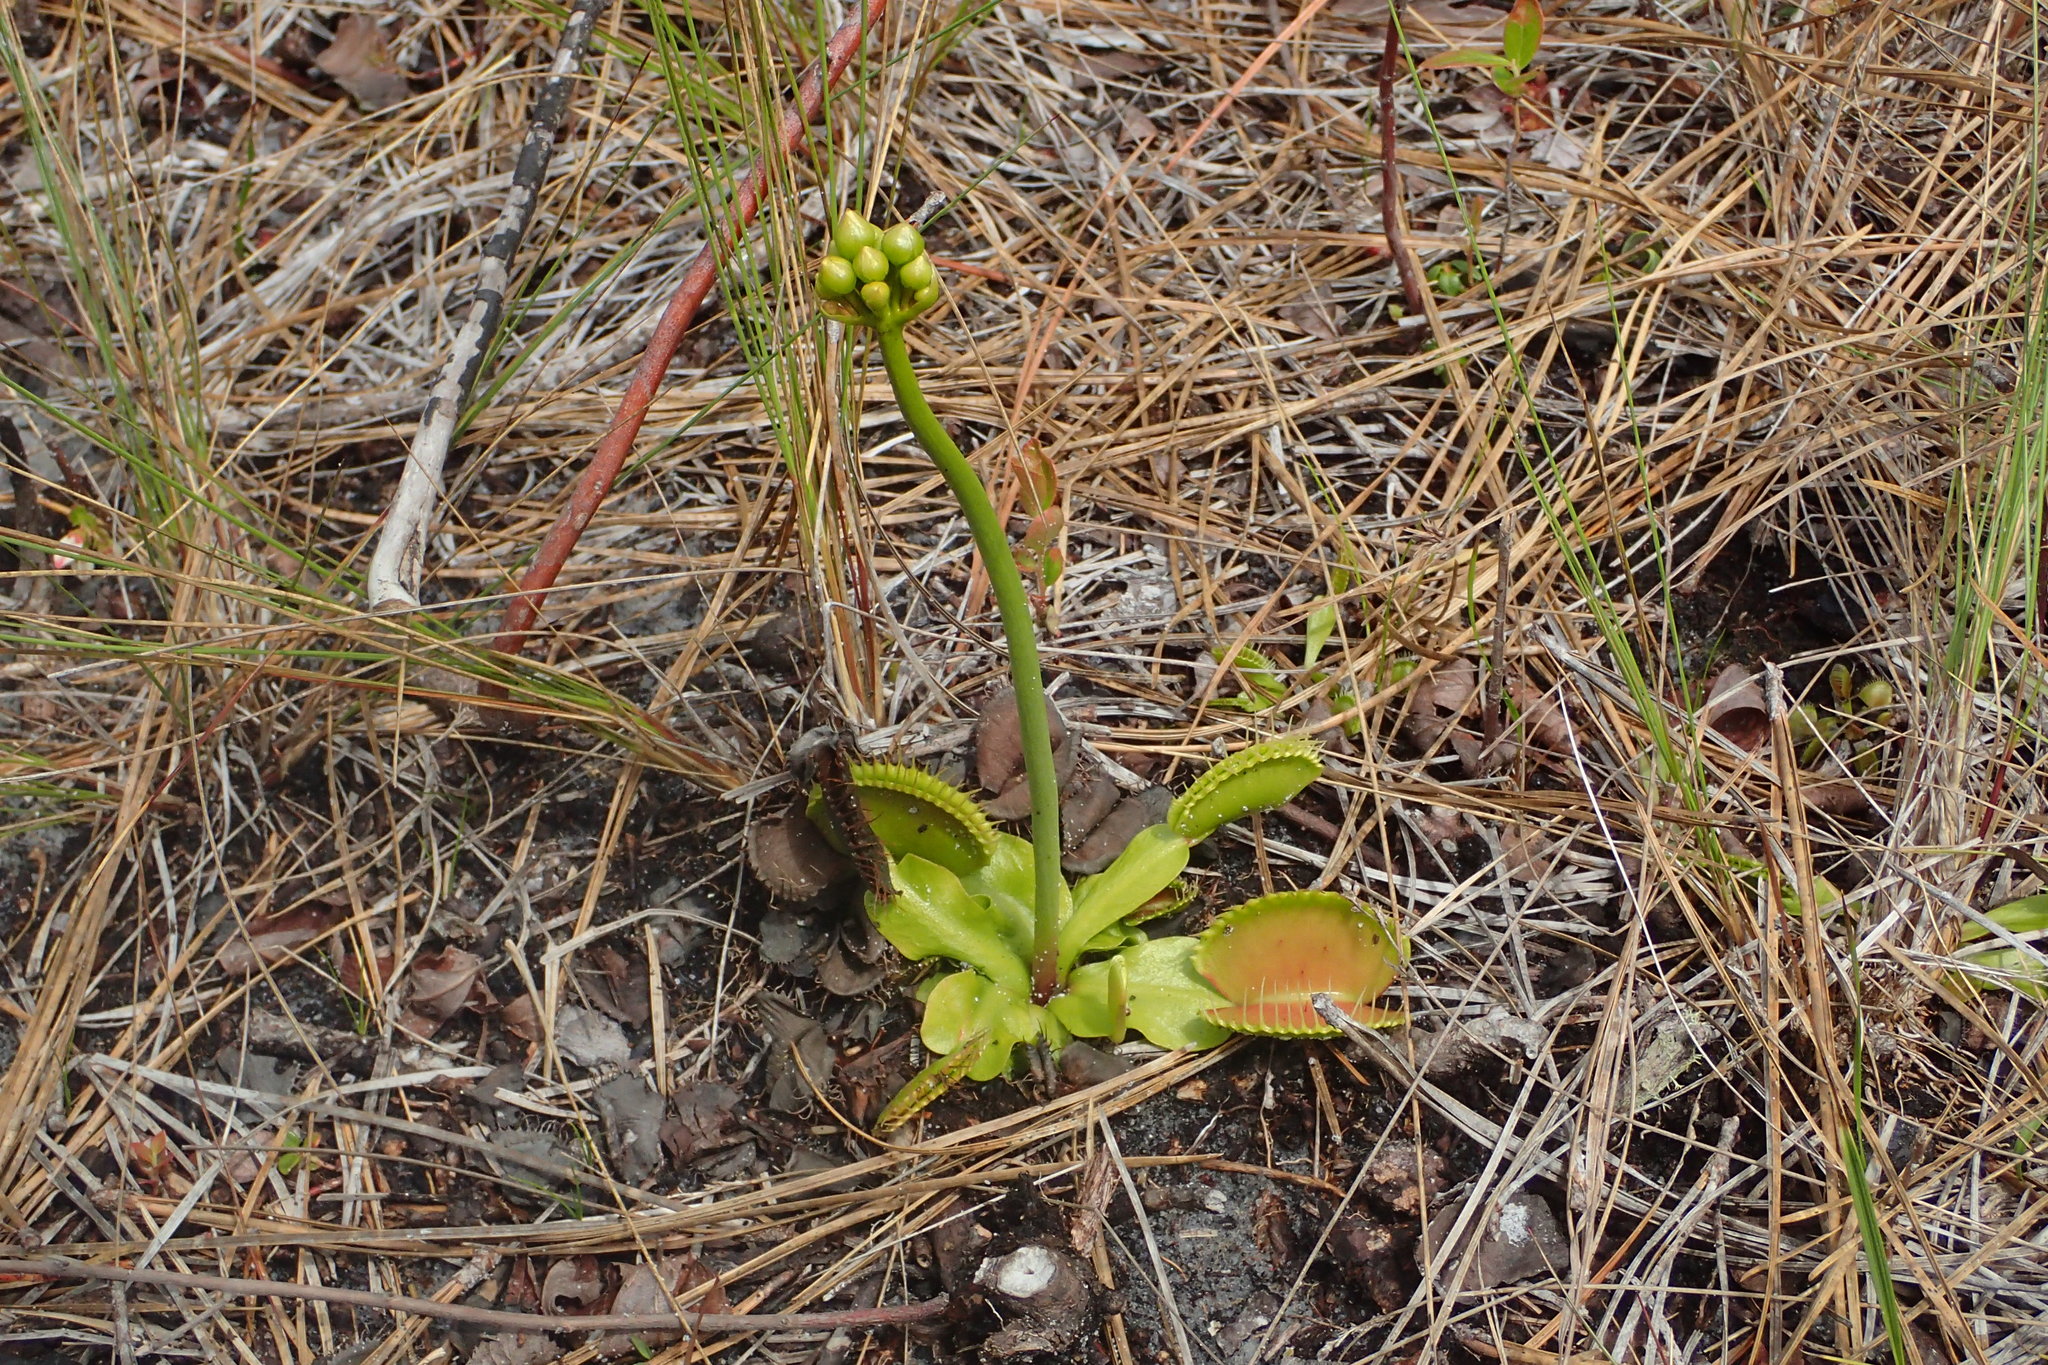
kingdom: Plantae
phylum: Tracheophyta
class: Magnoliopsida
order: Caryophyllales
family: Droseraceae
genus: Dionaea
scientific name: Dionaea muscipula
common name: Venus flytrap
